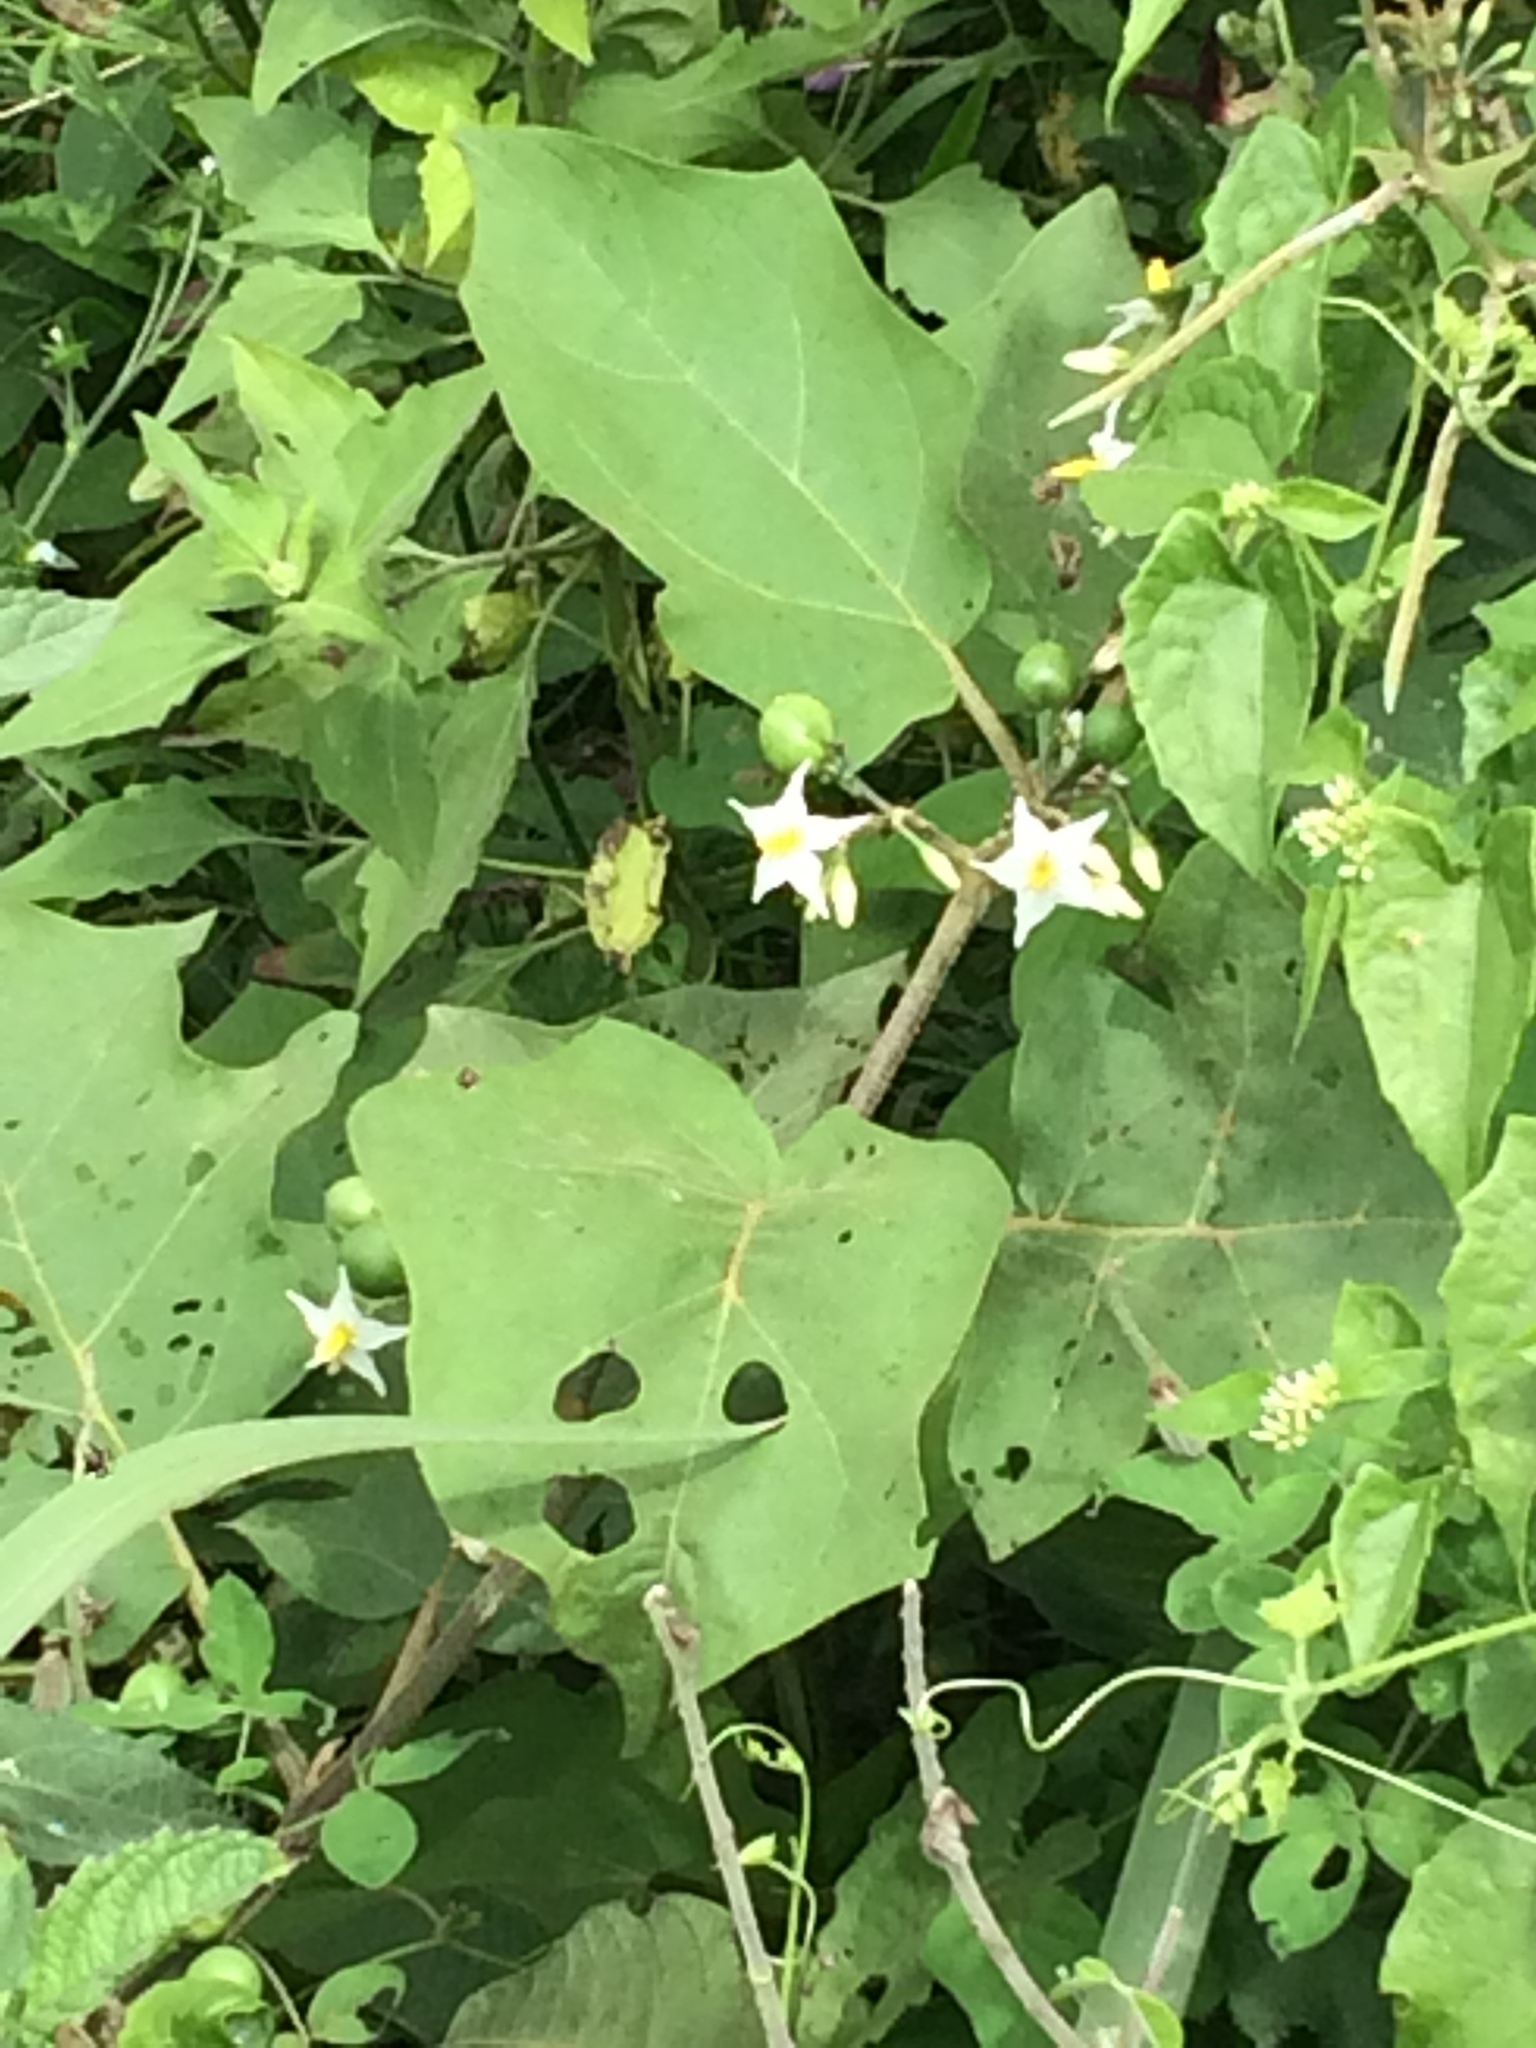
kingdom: Plantae
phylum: Tracheophyta
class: Magnoliopsida
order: Solanales
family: Solanaceae
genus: Solanum
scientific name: Solanum torvum
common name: Turkey berry
